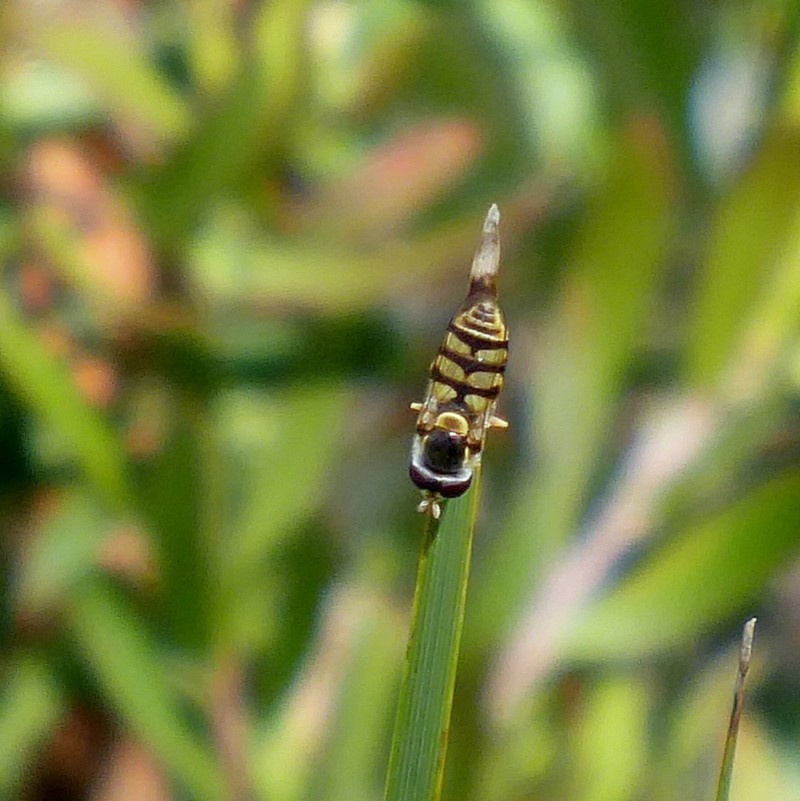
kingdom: Animalia
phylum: Arthropoda
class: Insecta
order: Diptera
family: Syrphidae
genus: Simosyrphus
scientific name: Simosyrphus grandicornis
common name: Hoverfly
